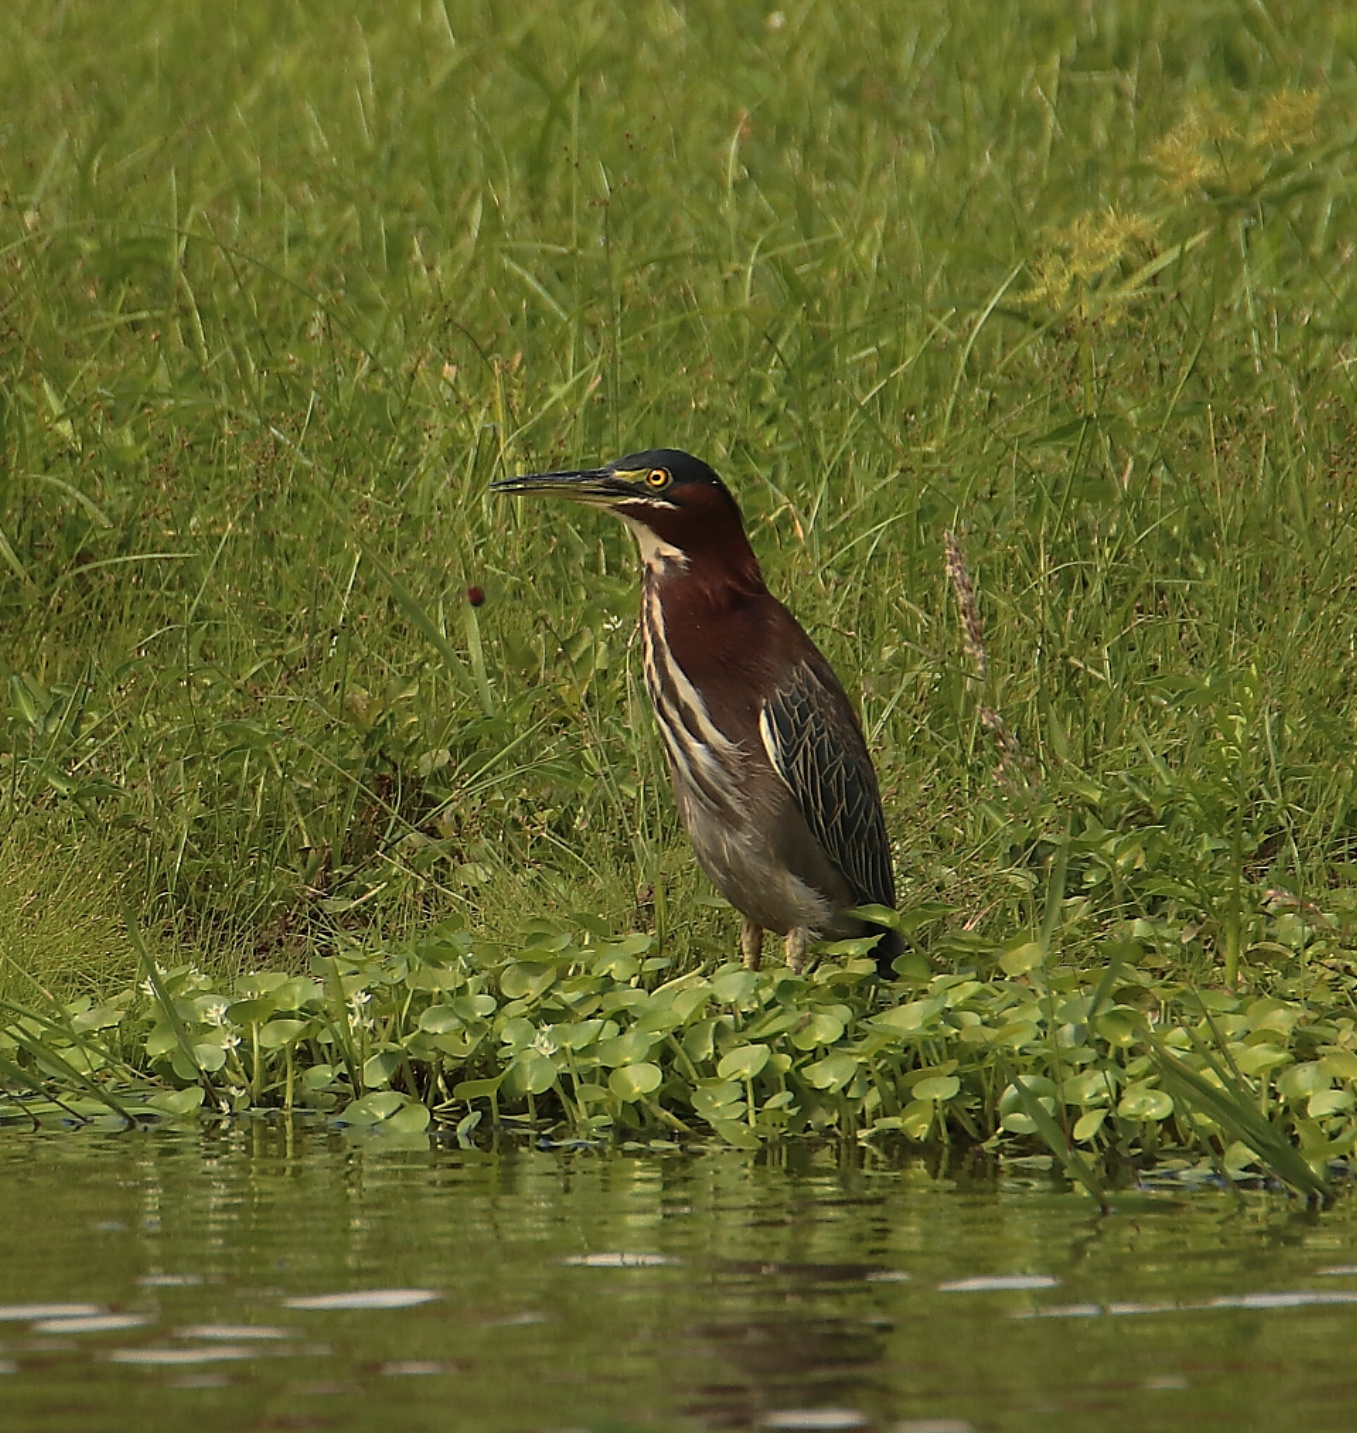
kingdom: Animalia
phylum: Chordata
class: Aves
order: Pelecaniformes
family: Ardeidae
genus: Butorides
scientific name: Butorides virescens
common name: Green heron
